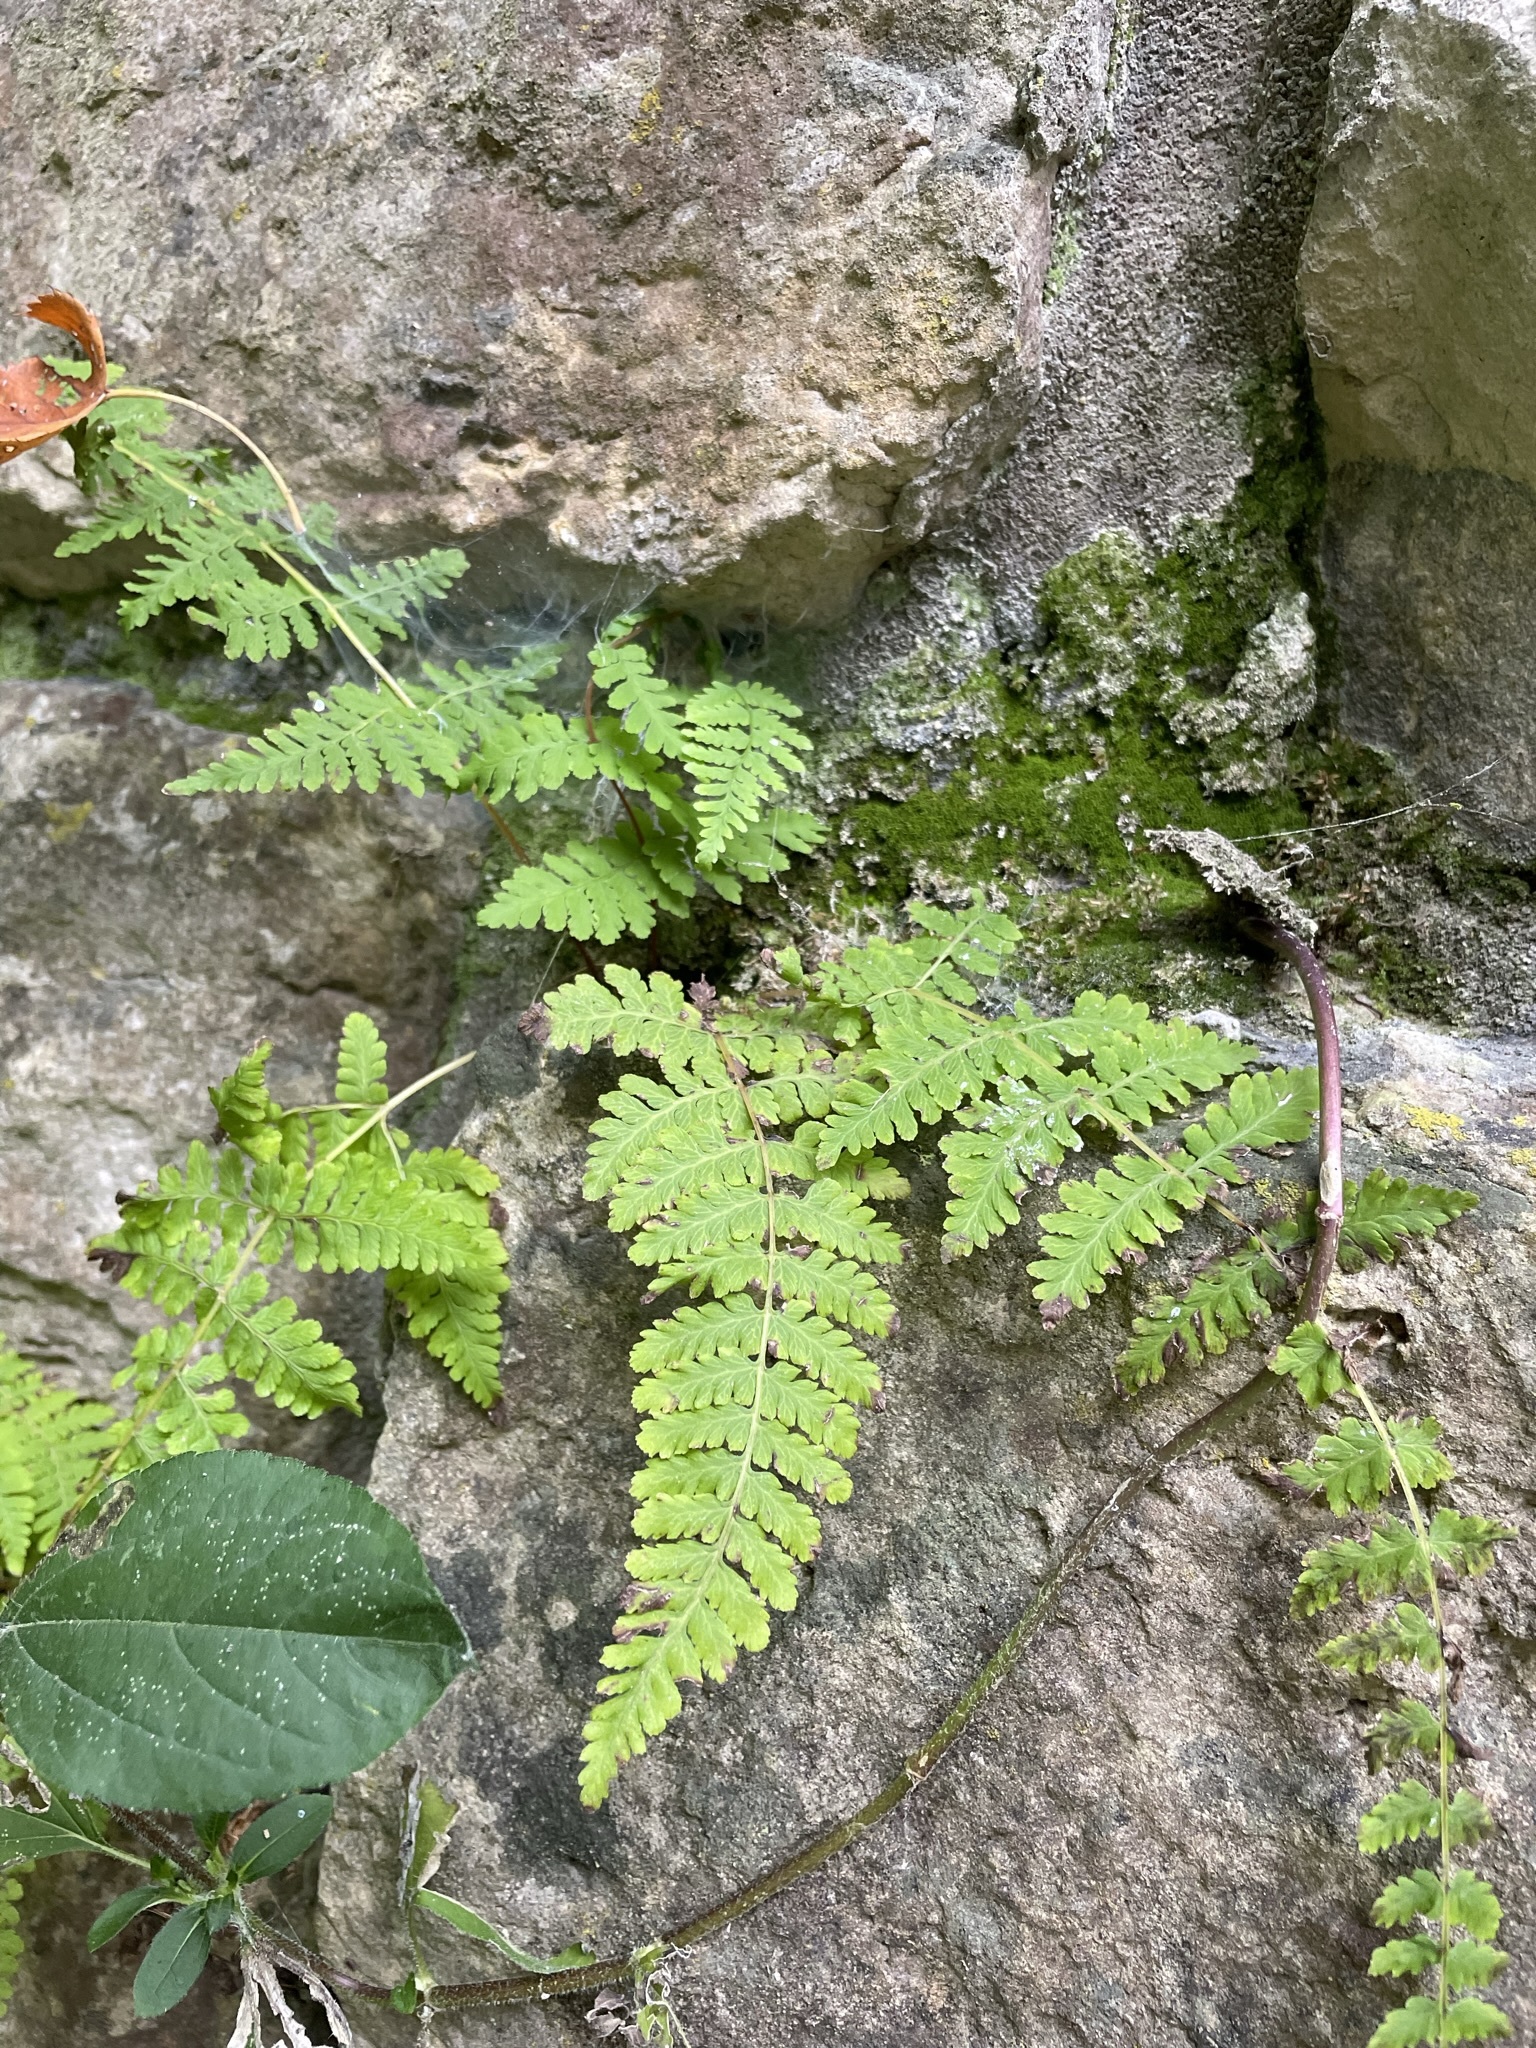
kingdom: Plantae
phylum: Tracheophyta
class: Polypodiopsida
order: Polypodiales
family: Cystopteridaceae
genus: Cystopteris
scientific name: Cystopteris bulbifera
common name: Bulblet bladder fern
